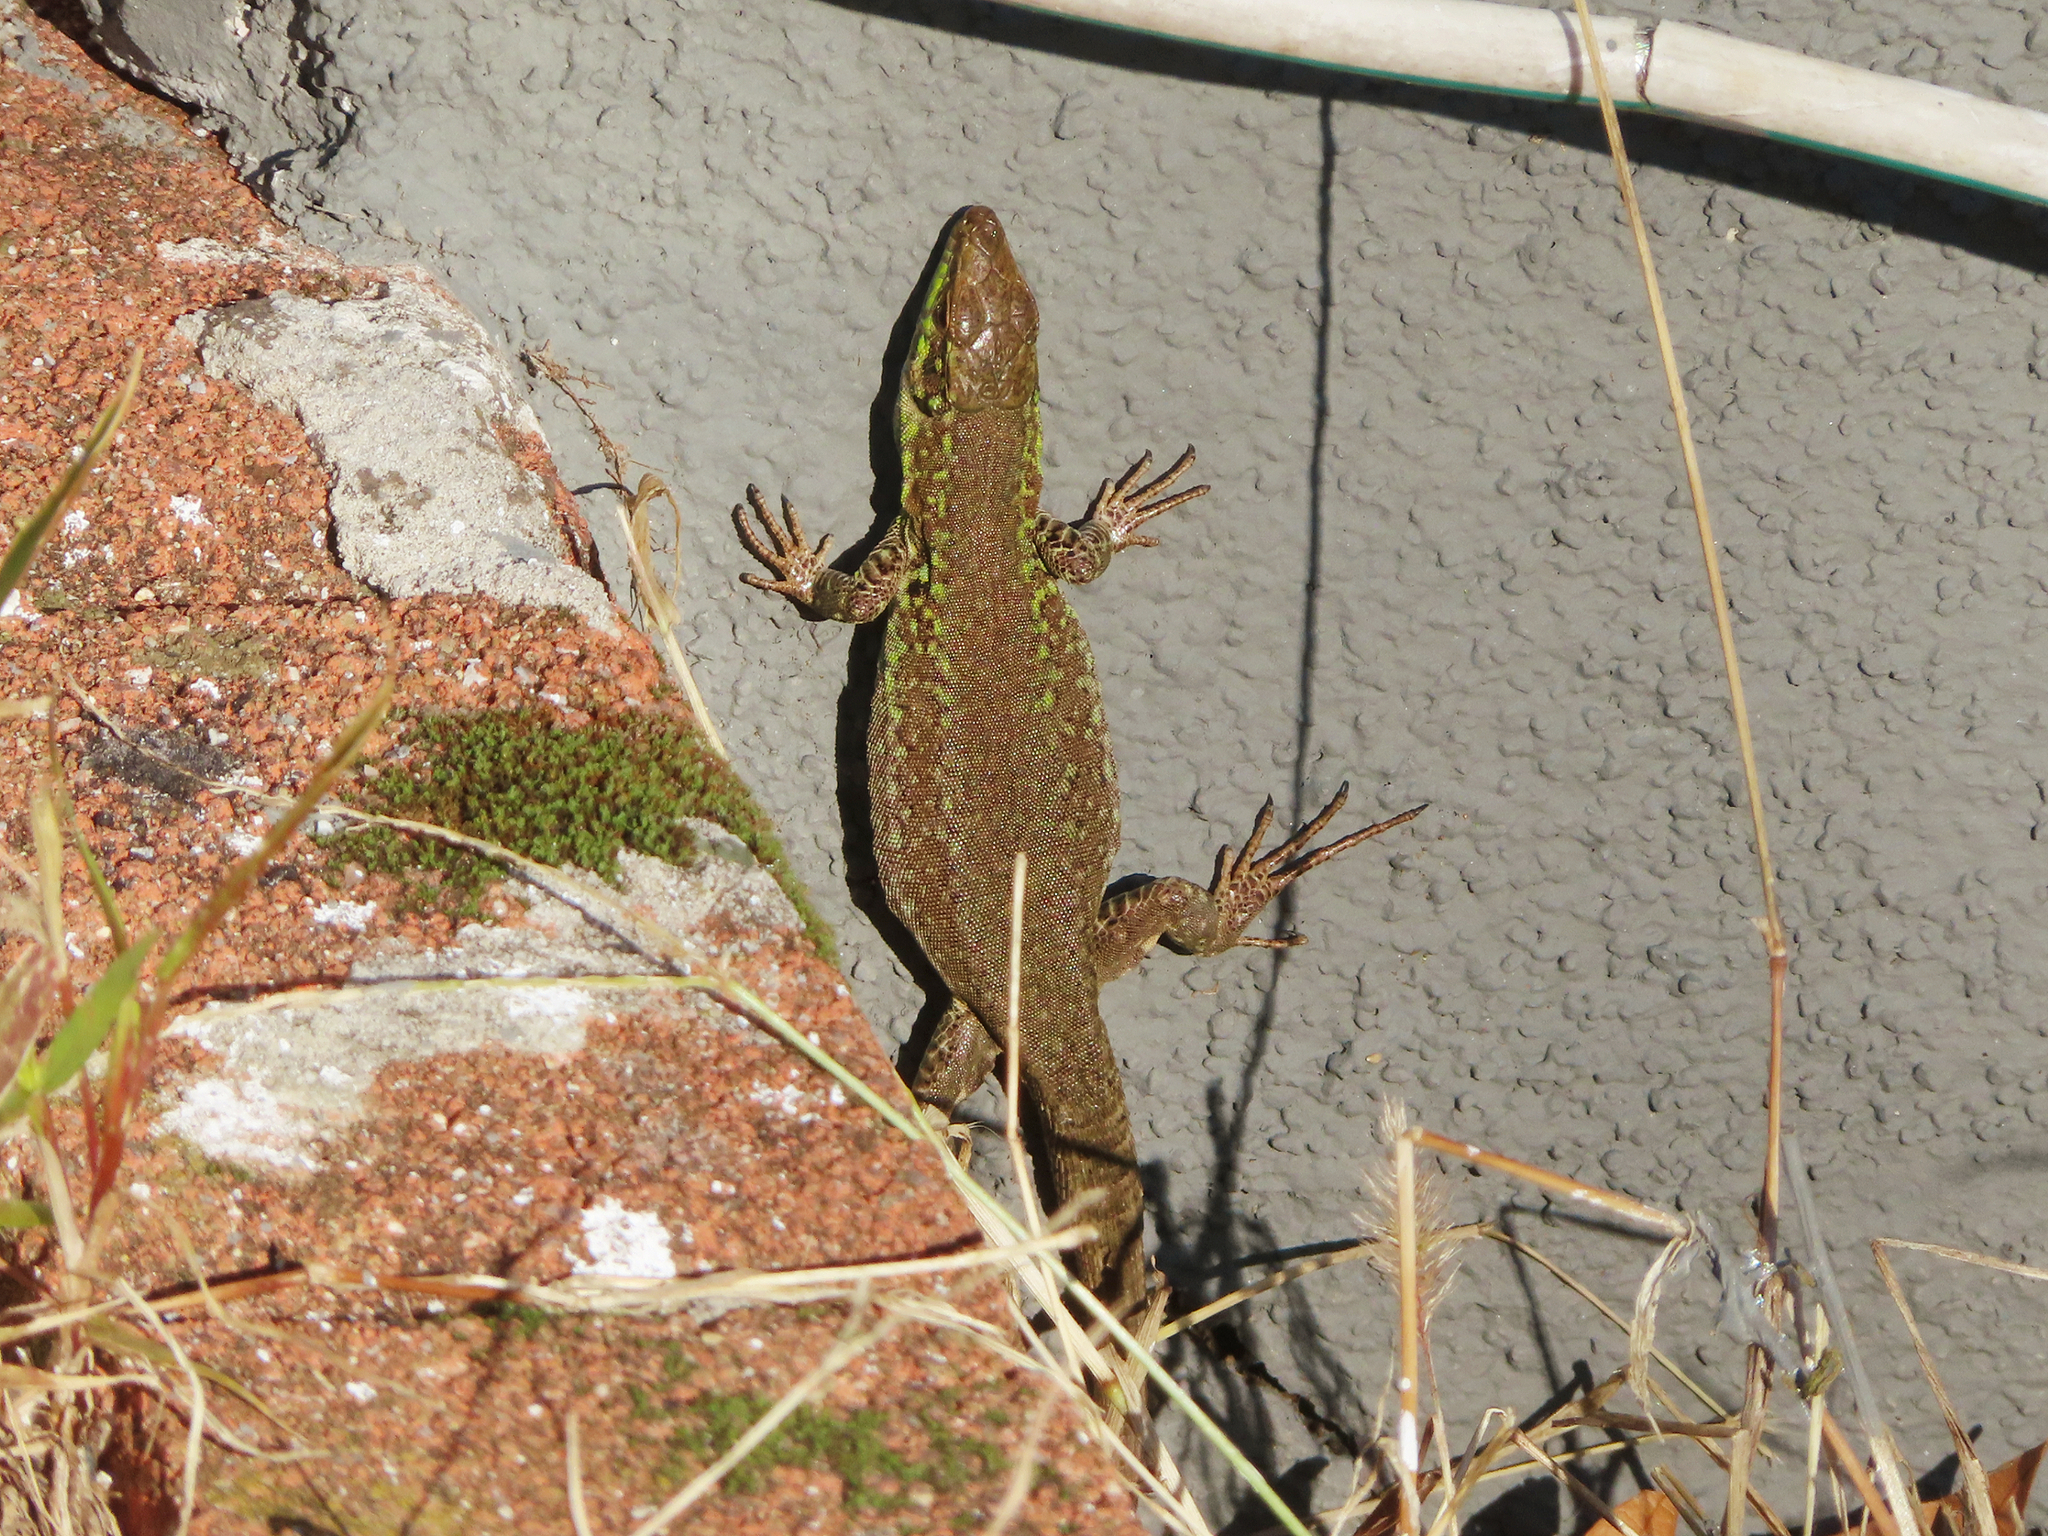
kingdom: Animalia
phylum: Chordata
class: Squamata
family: Lacertidae
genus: Podarcis
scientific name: Podarcis siculus
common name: Italian wall lizard
